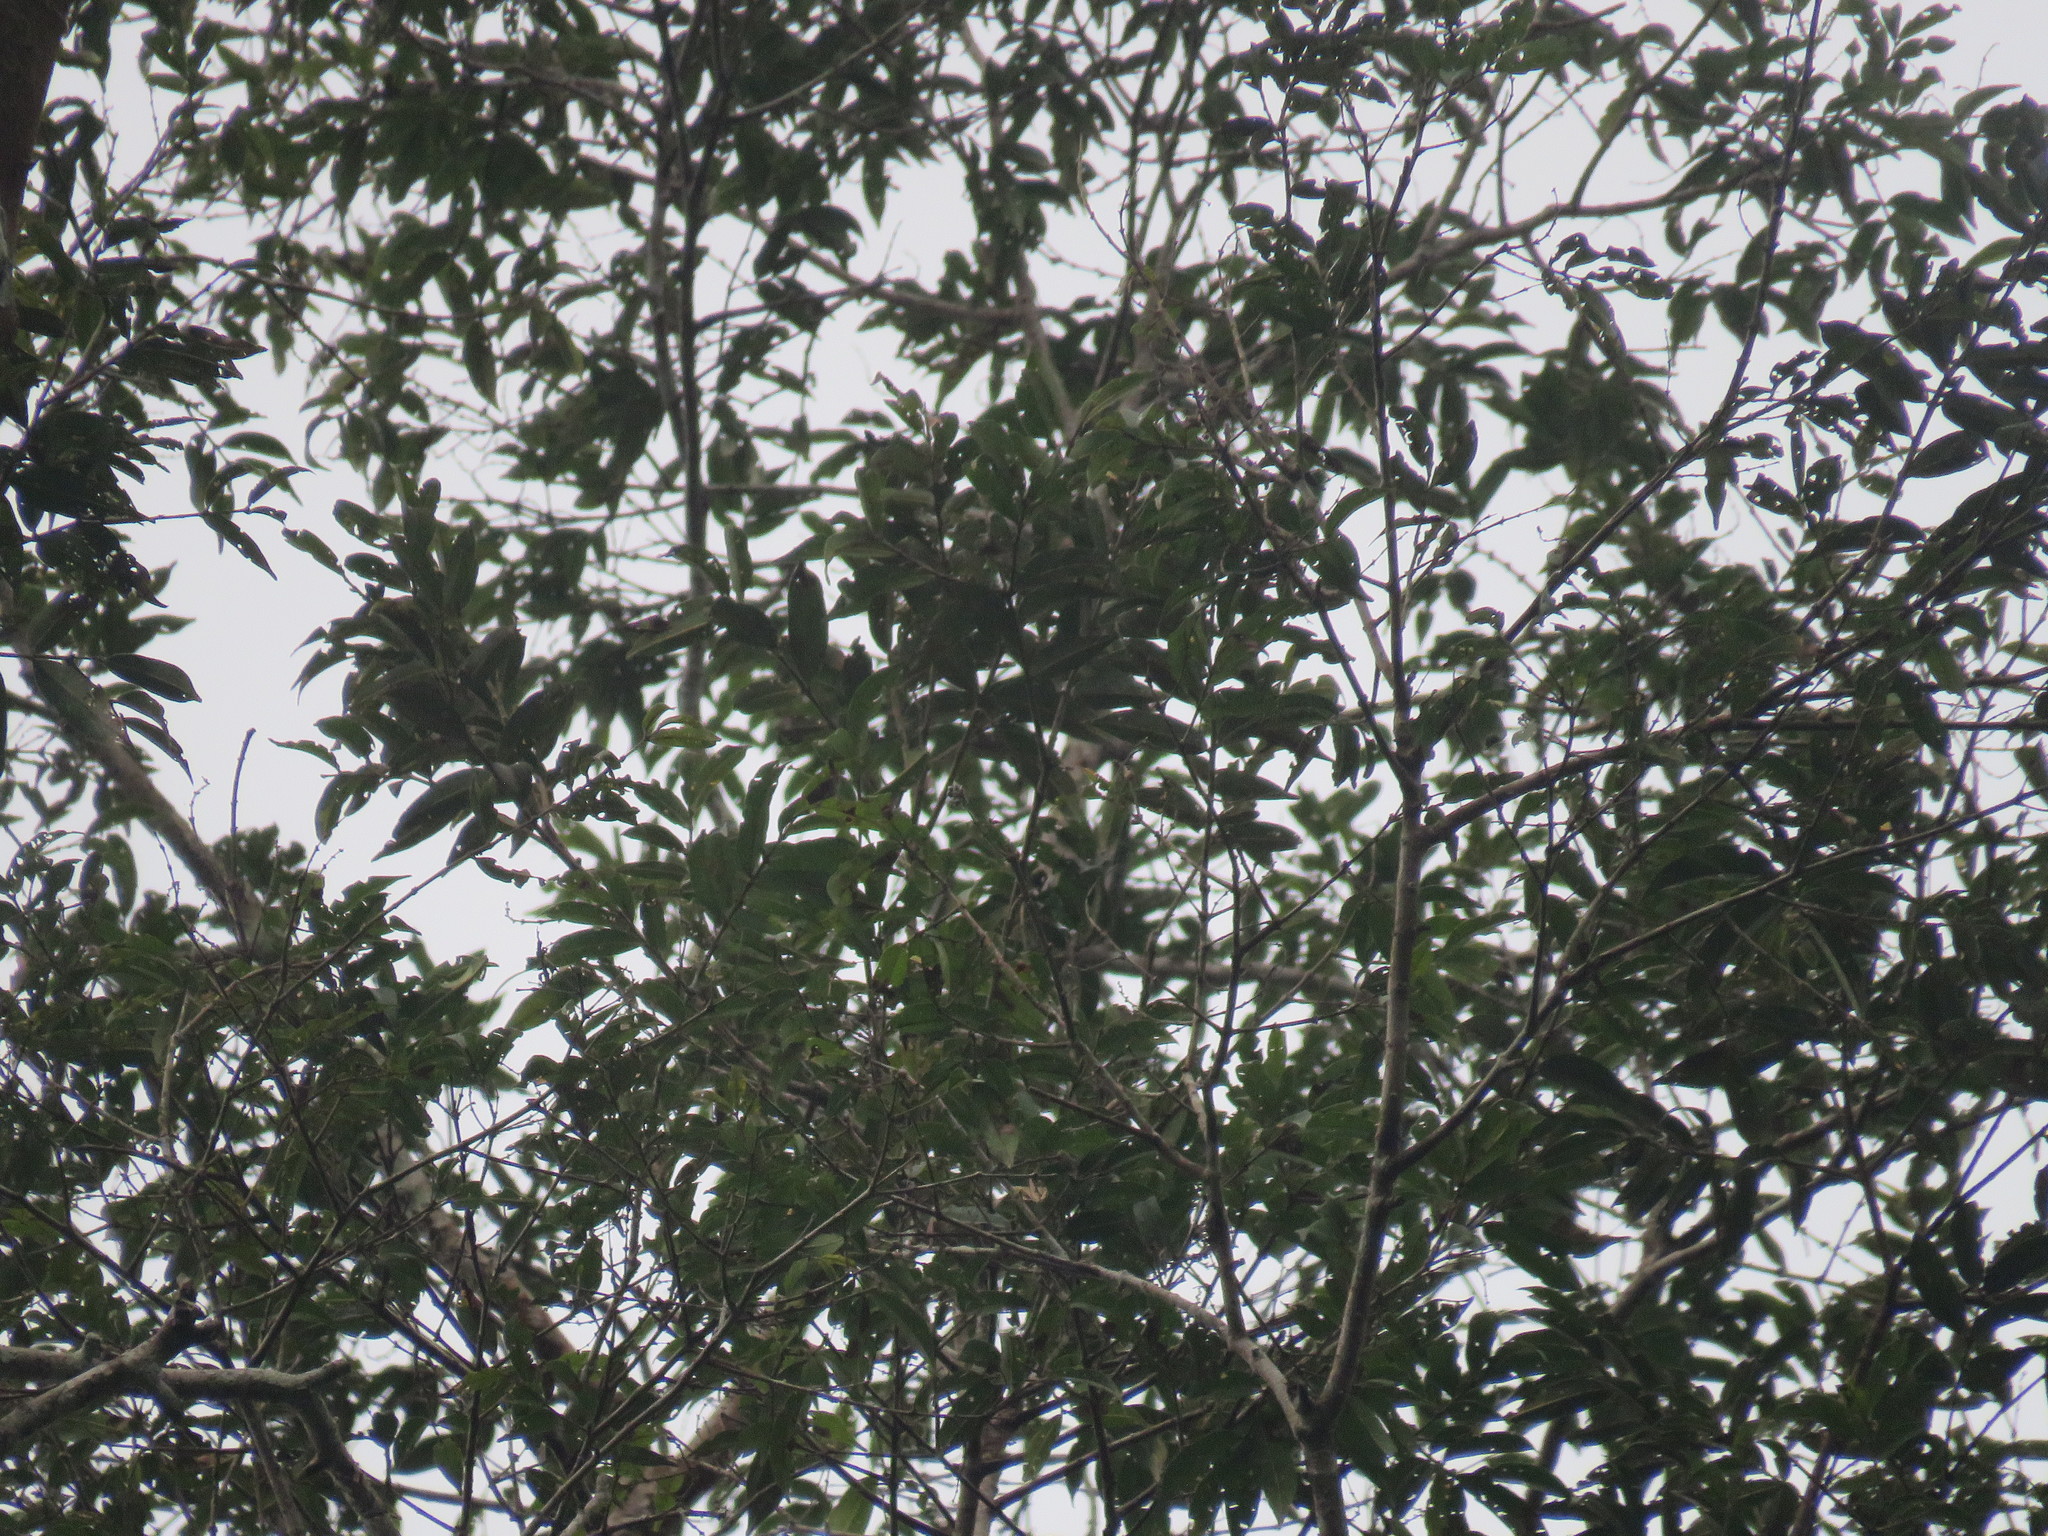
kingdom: Plantae
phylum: Tracheophyta
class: Magnoliopsida
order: Myrtales
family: Vochysiaceae
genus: Qualea
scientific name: Qualea paraensis
